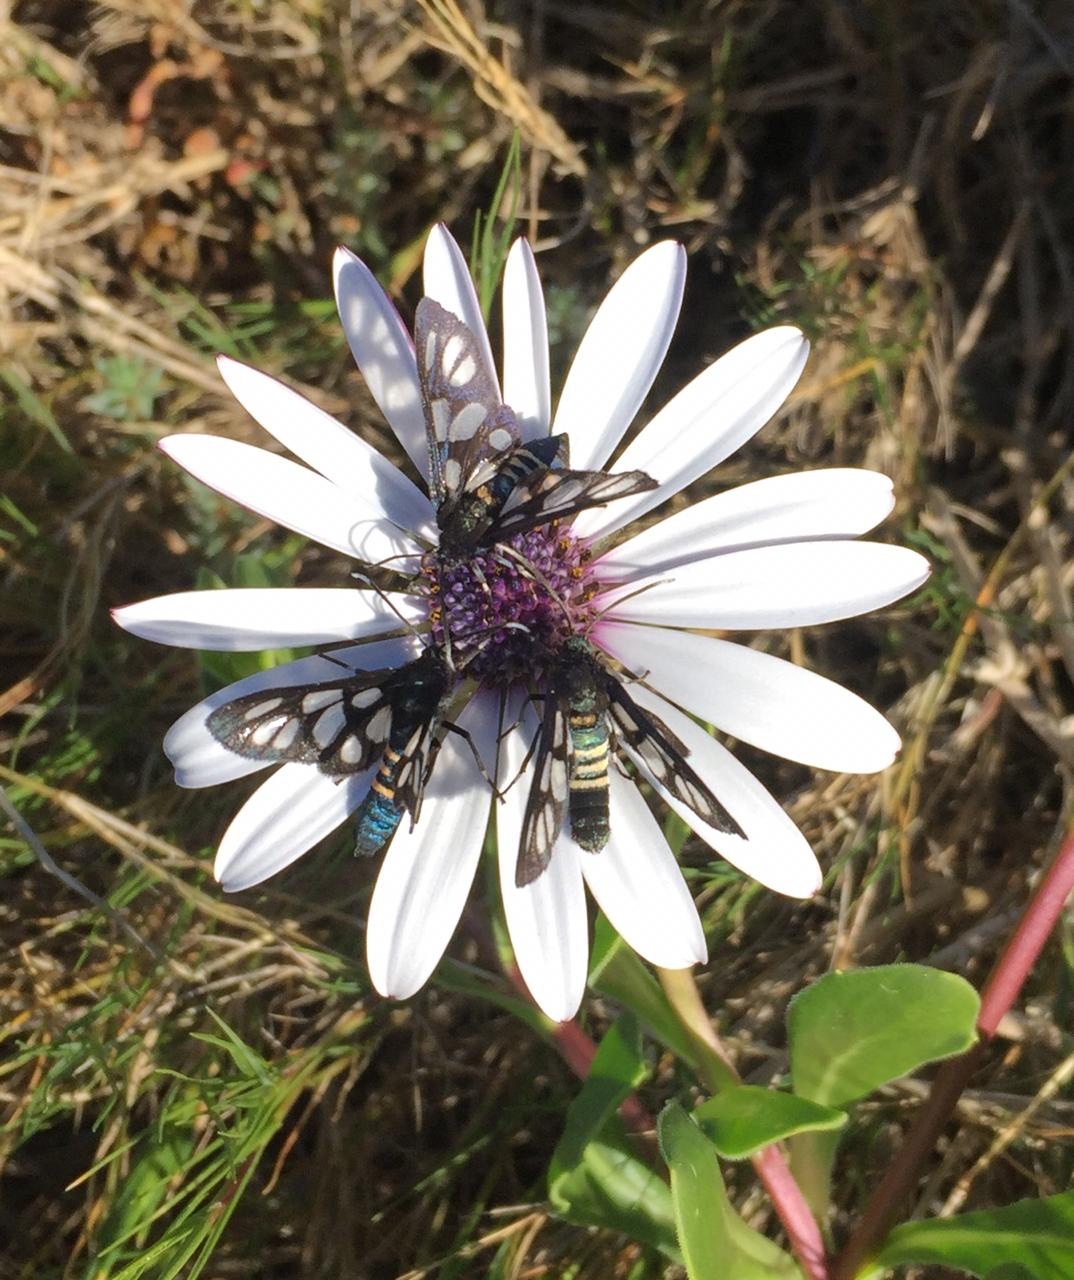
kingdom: Animalia
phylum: Arthropoda
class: Insecta
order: Lepidoptera
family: Erebidae
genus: Eutomis
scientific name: Eutomis minceus
